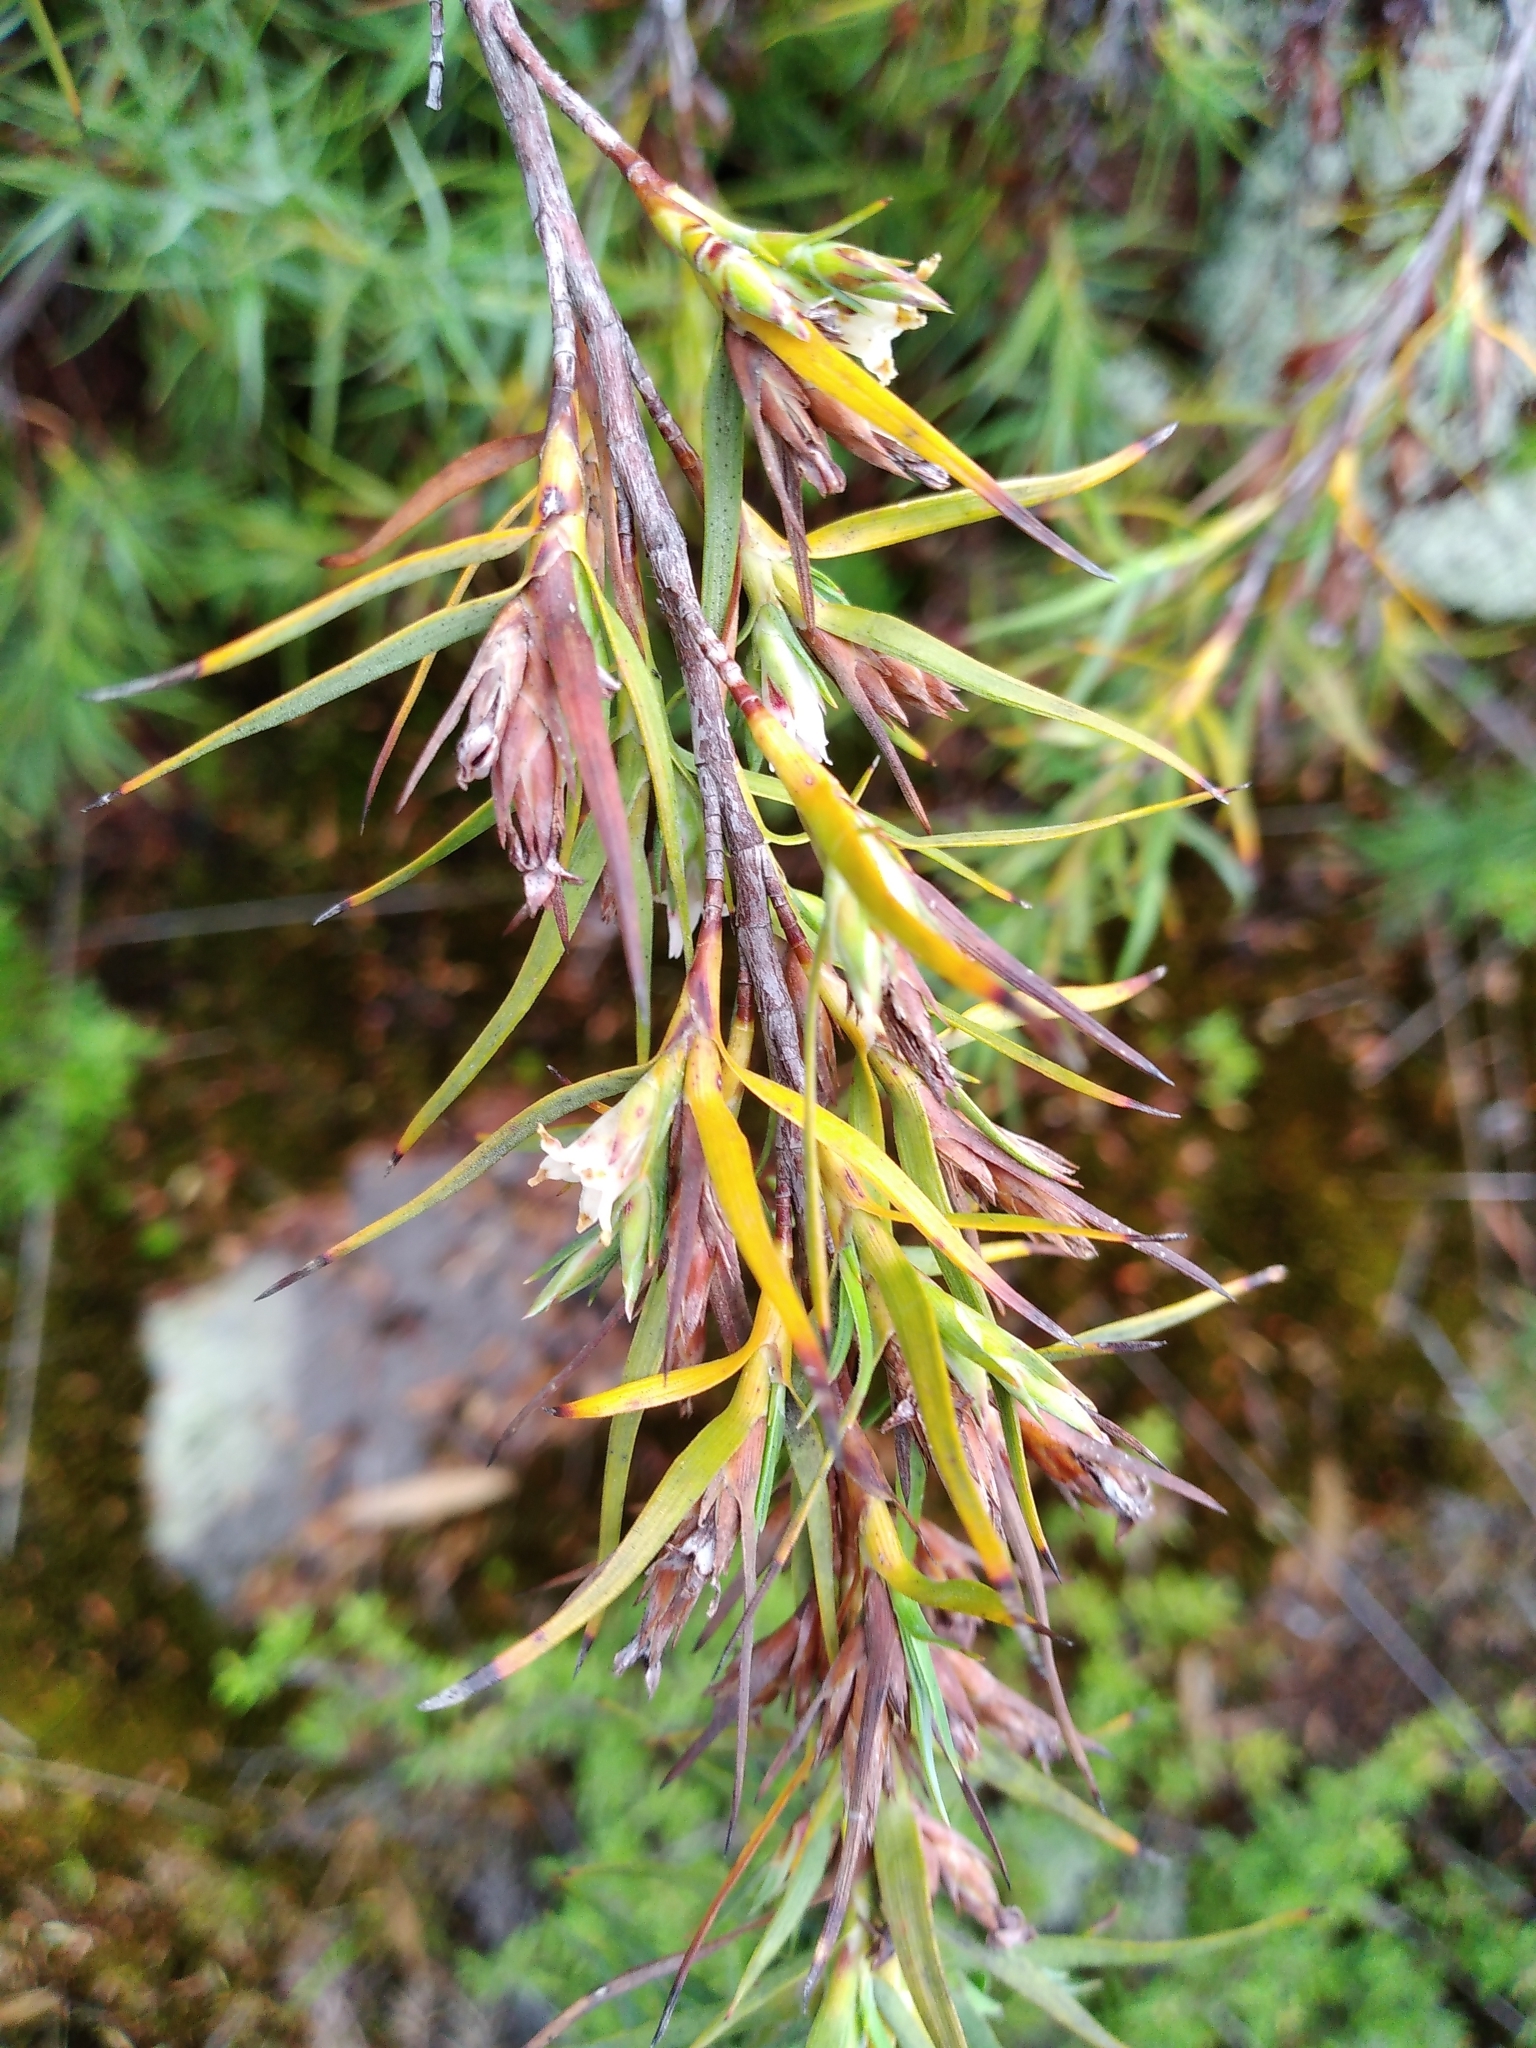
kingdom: Plantae
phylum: Tracheophyta
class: Magnoliopsida
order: Ericales
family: Ericaceae
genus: Dracophyllum
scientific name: Dracophyllum trimorphum
